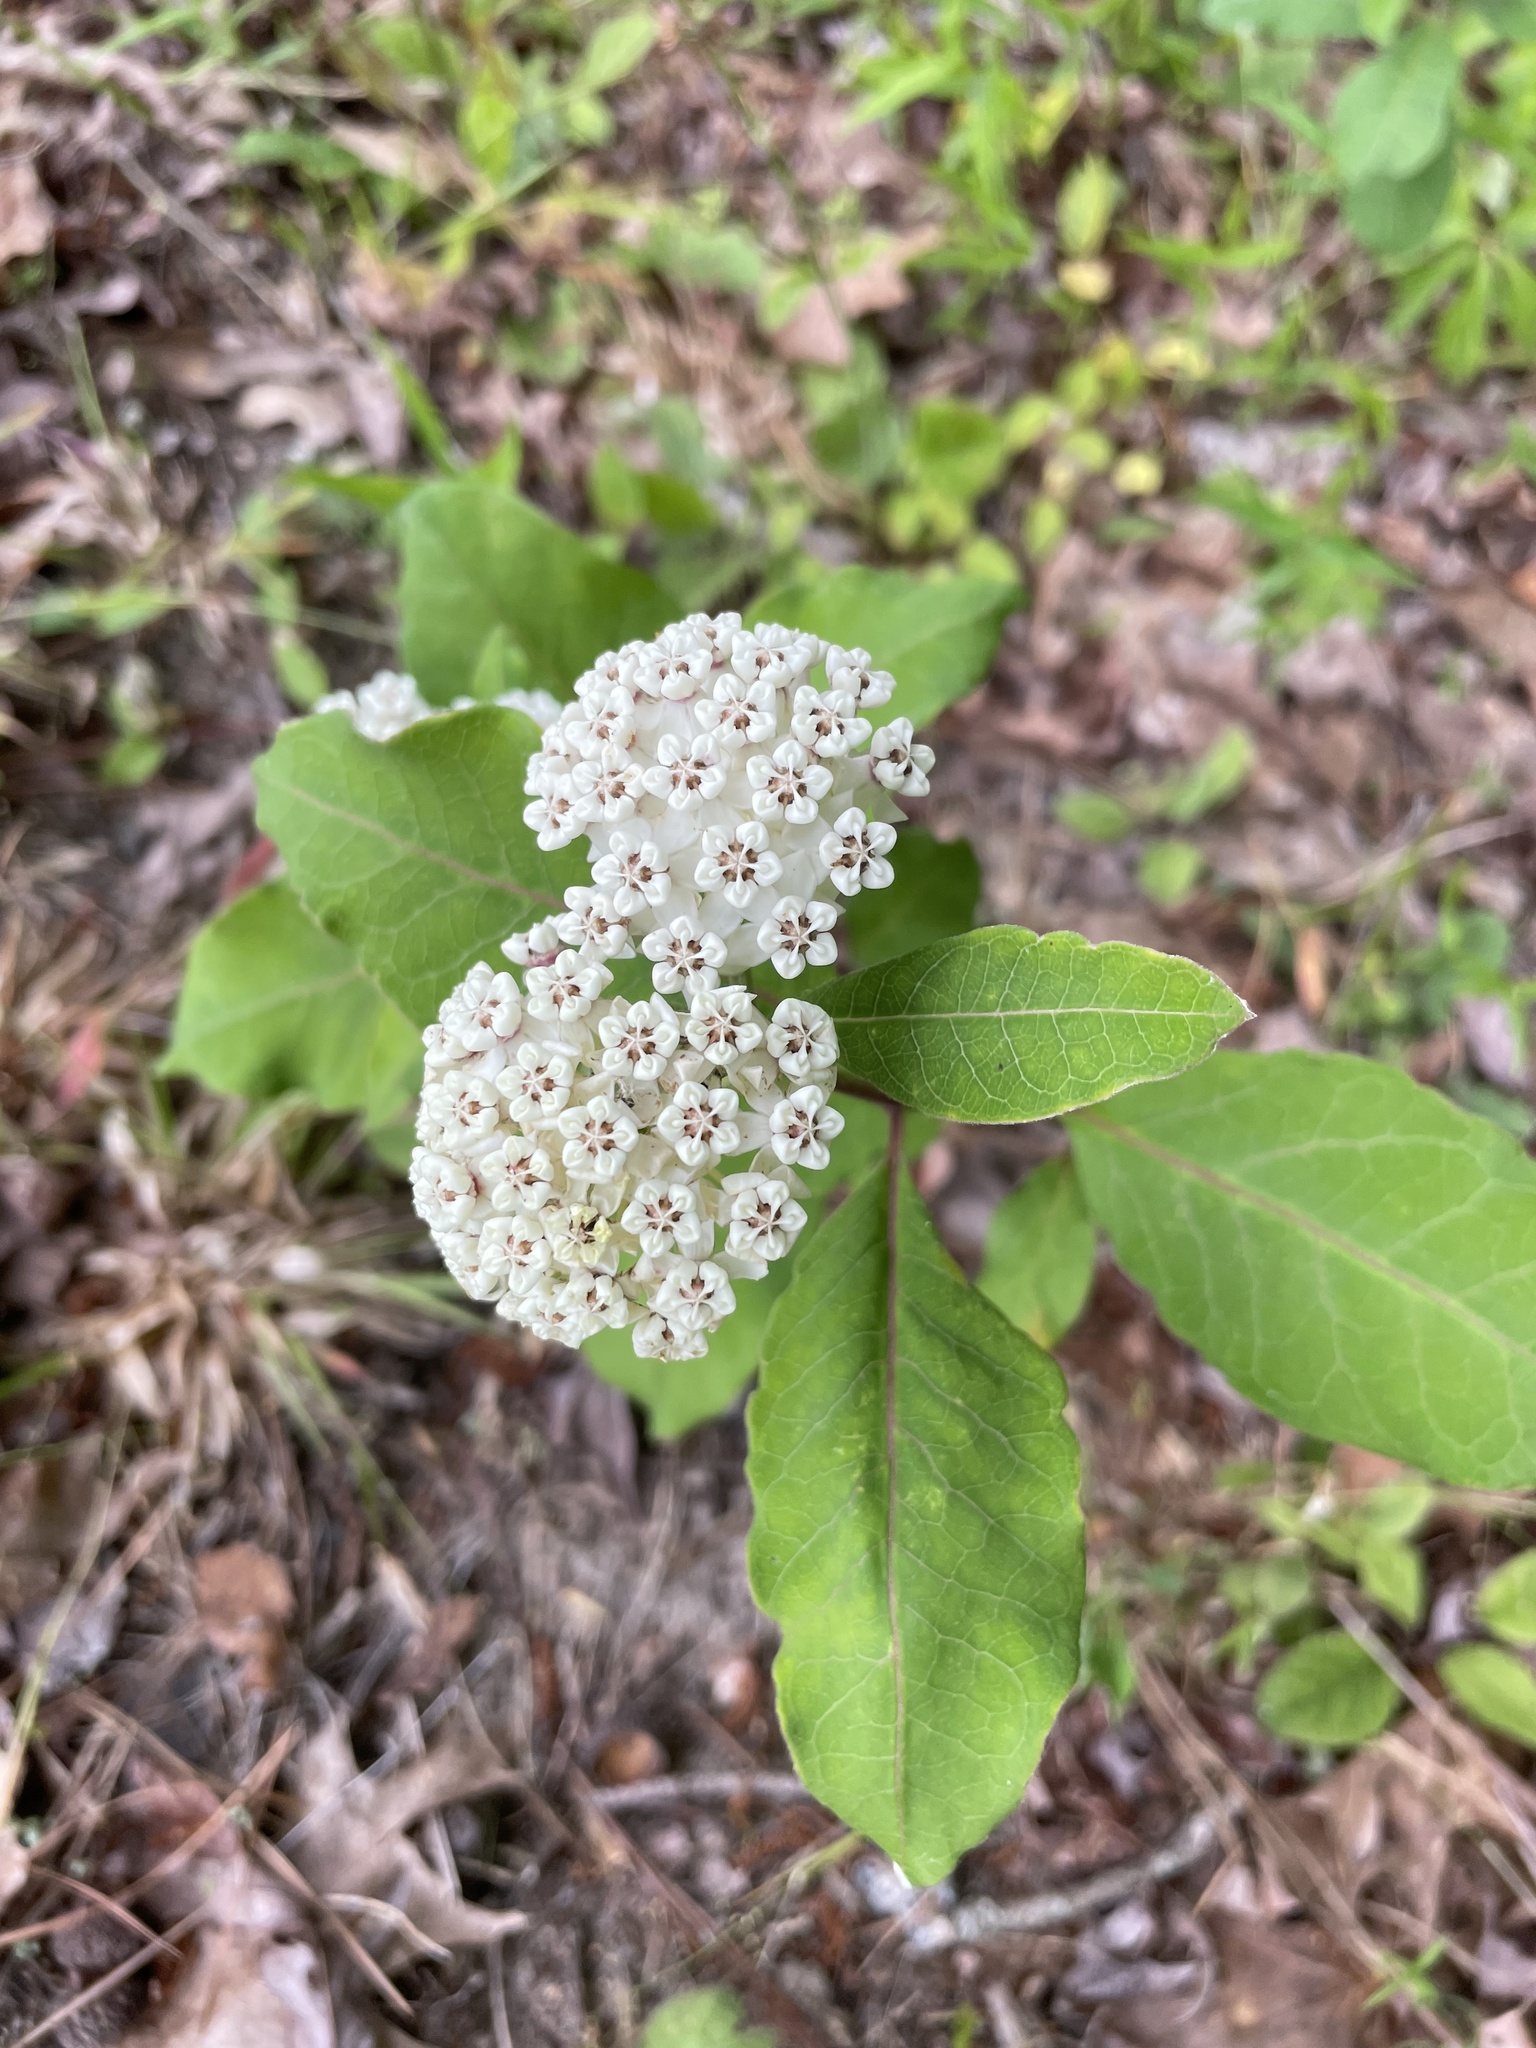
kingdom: Plantae
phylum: Tracheophyta
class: Magnoliopsida
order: Gentianales
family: Apocynaceae
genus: Asclepias
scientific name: Asclepias variegata
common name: Variegated milkweed
